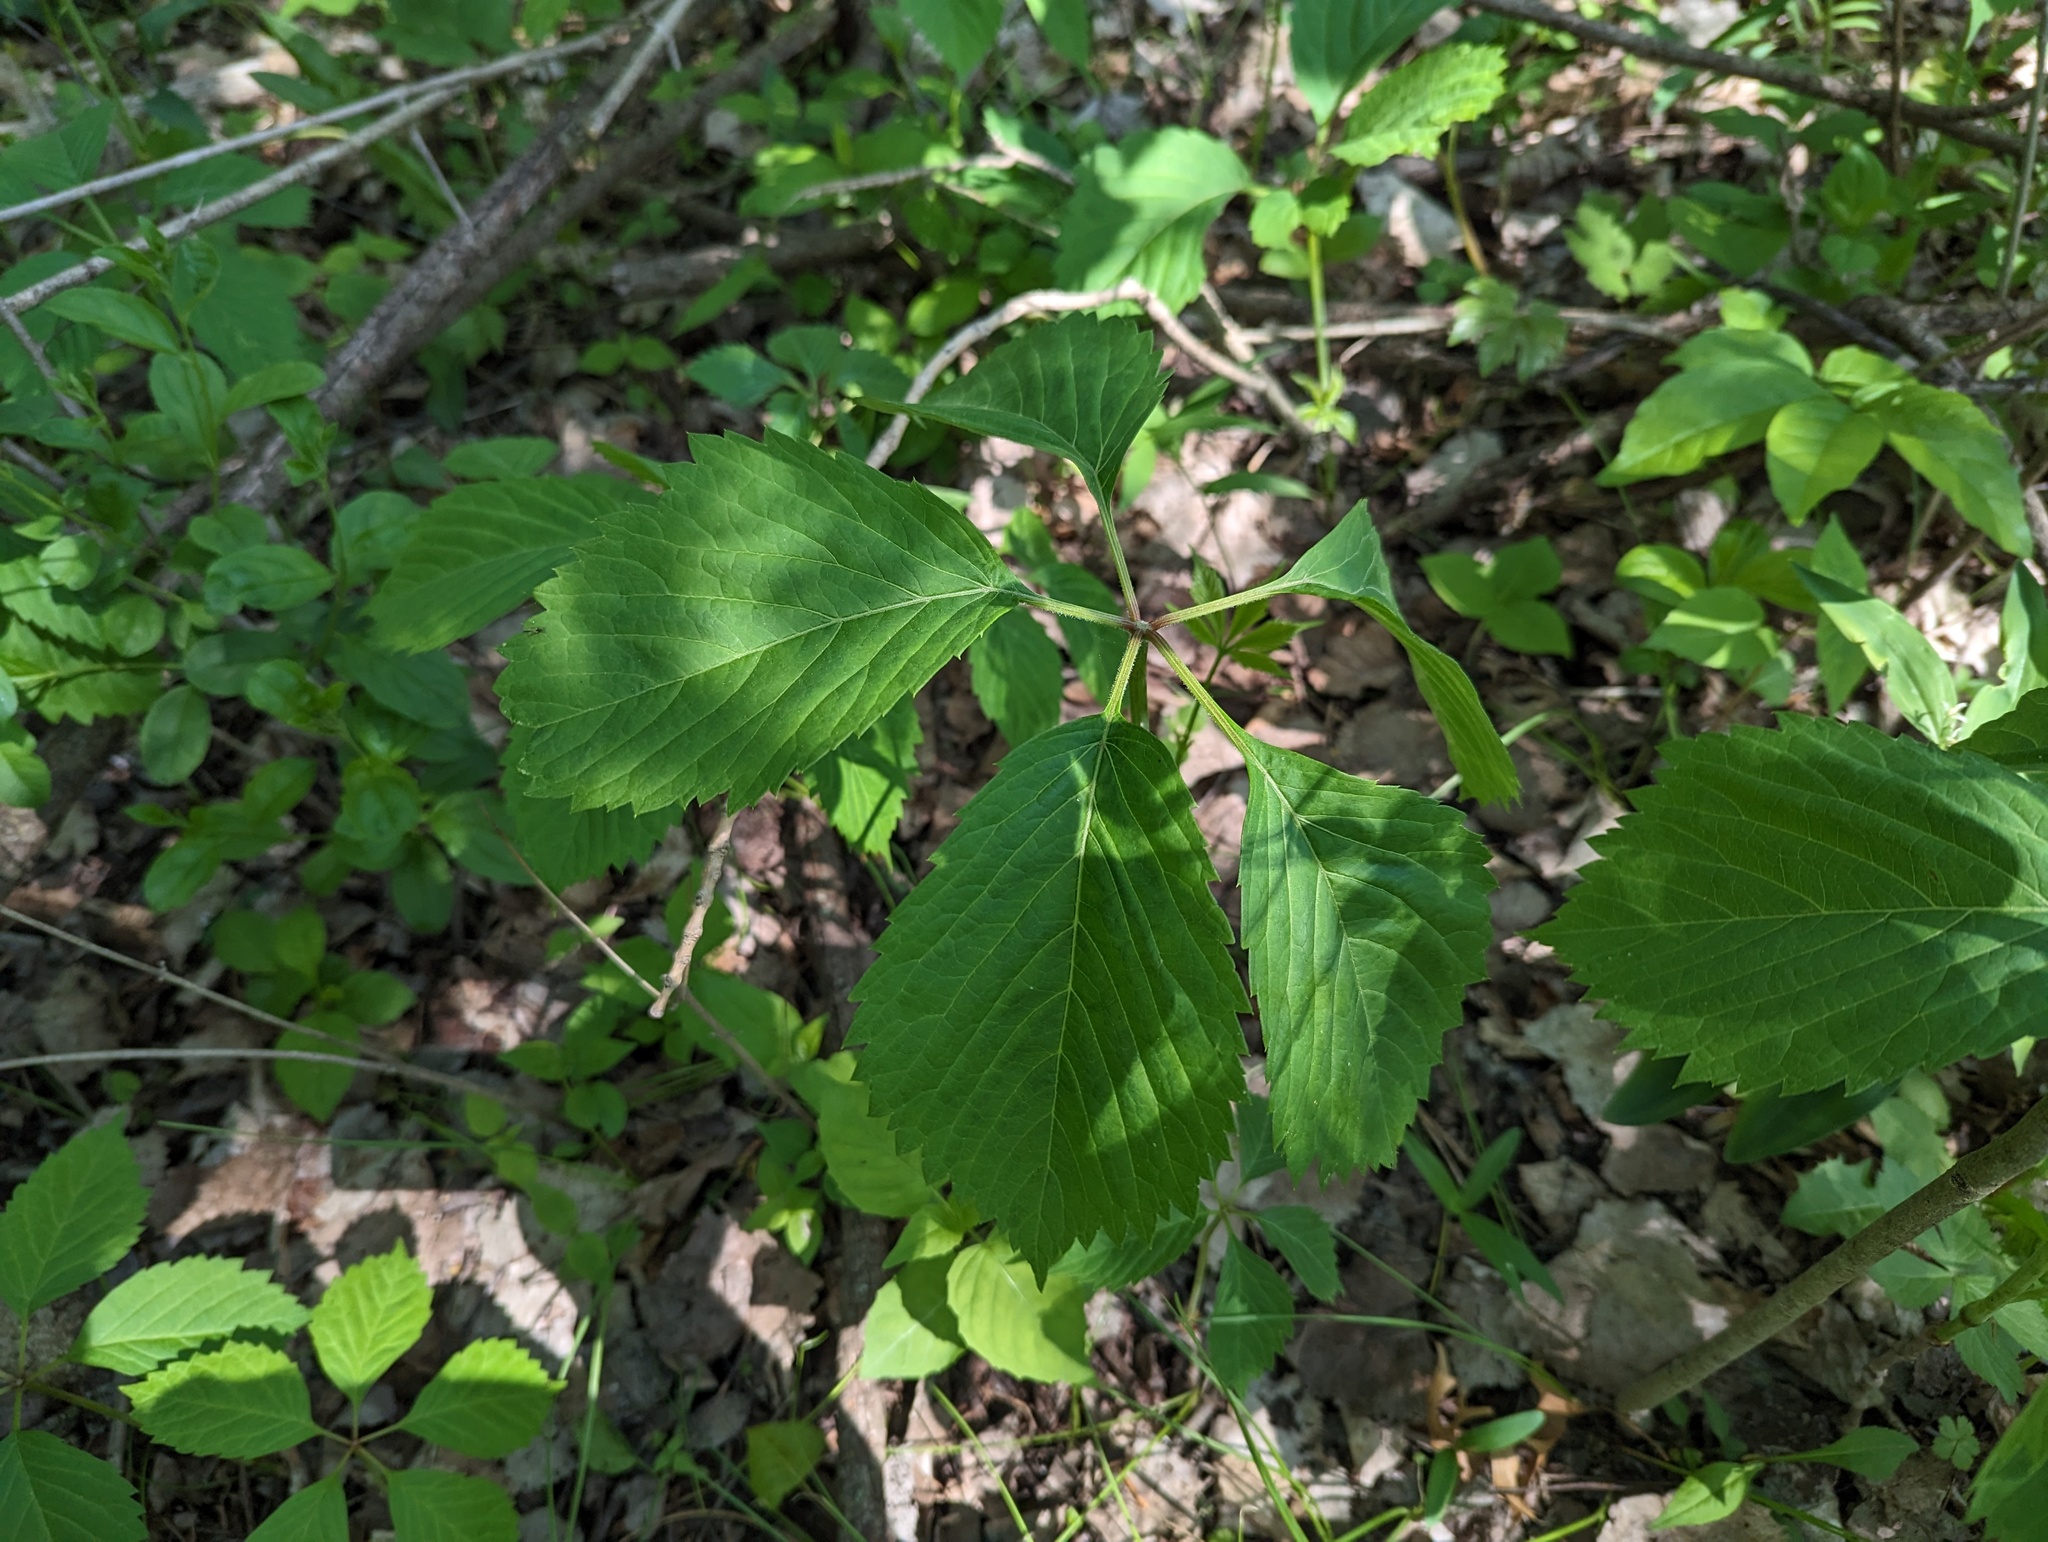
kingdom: Plantae
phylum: Tracheophyta
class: Magnoliopsida
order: Vitales
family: Vitaceae
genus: Parthenocissus
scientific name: Parthenocissus inserta
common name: False virginia-creeper
